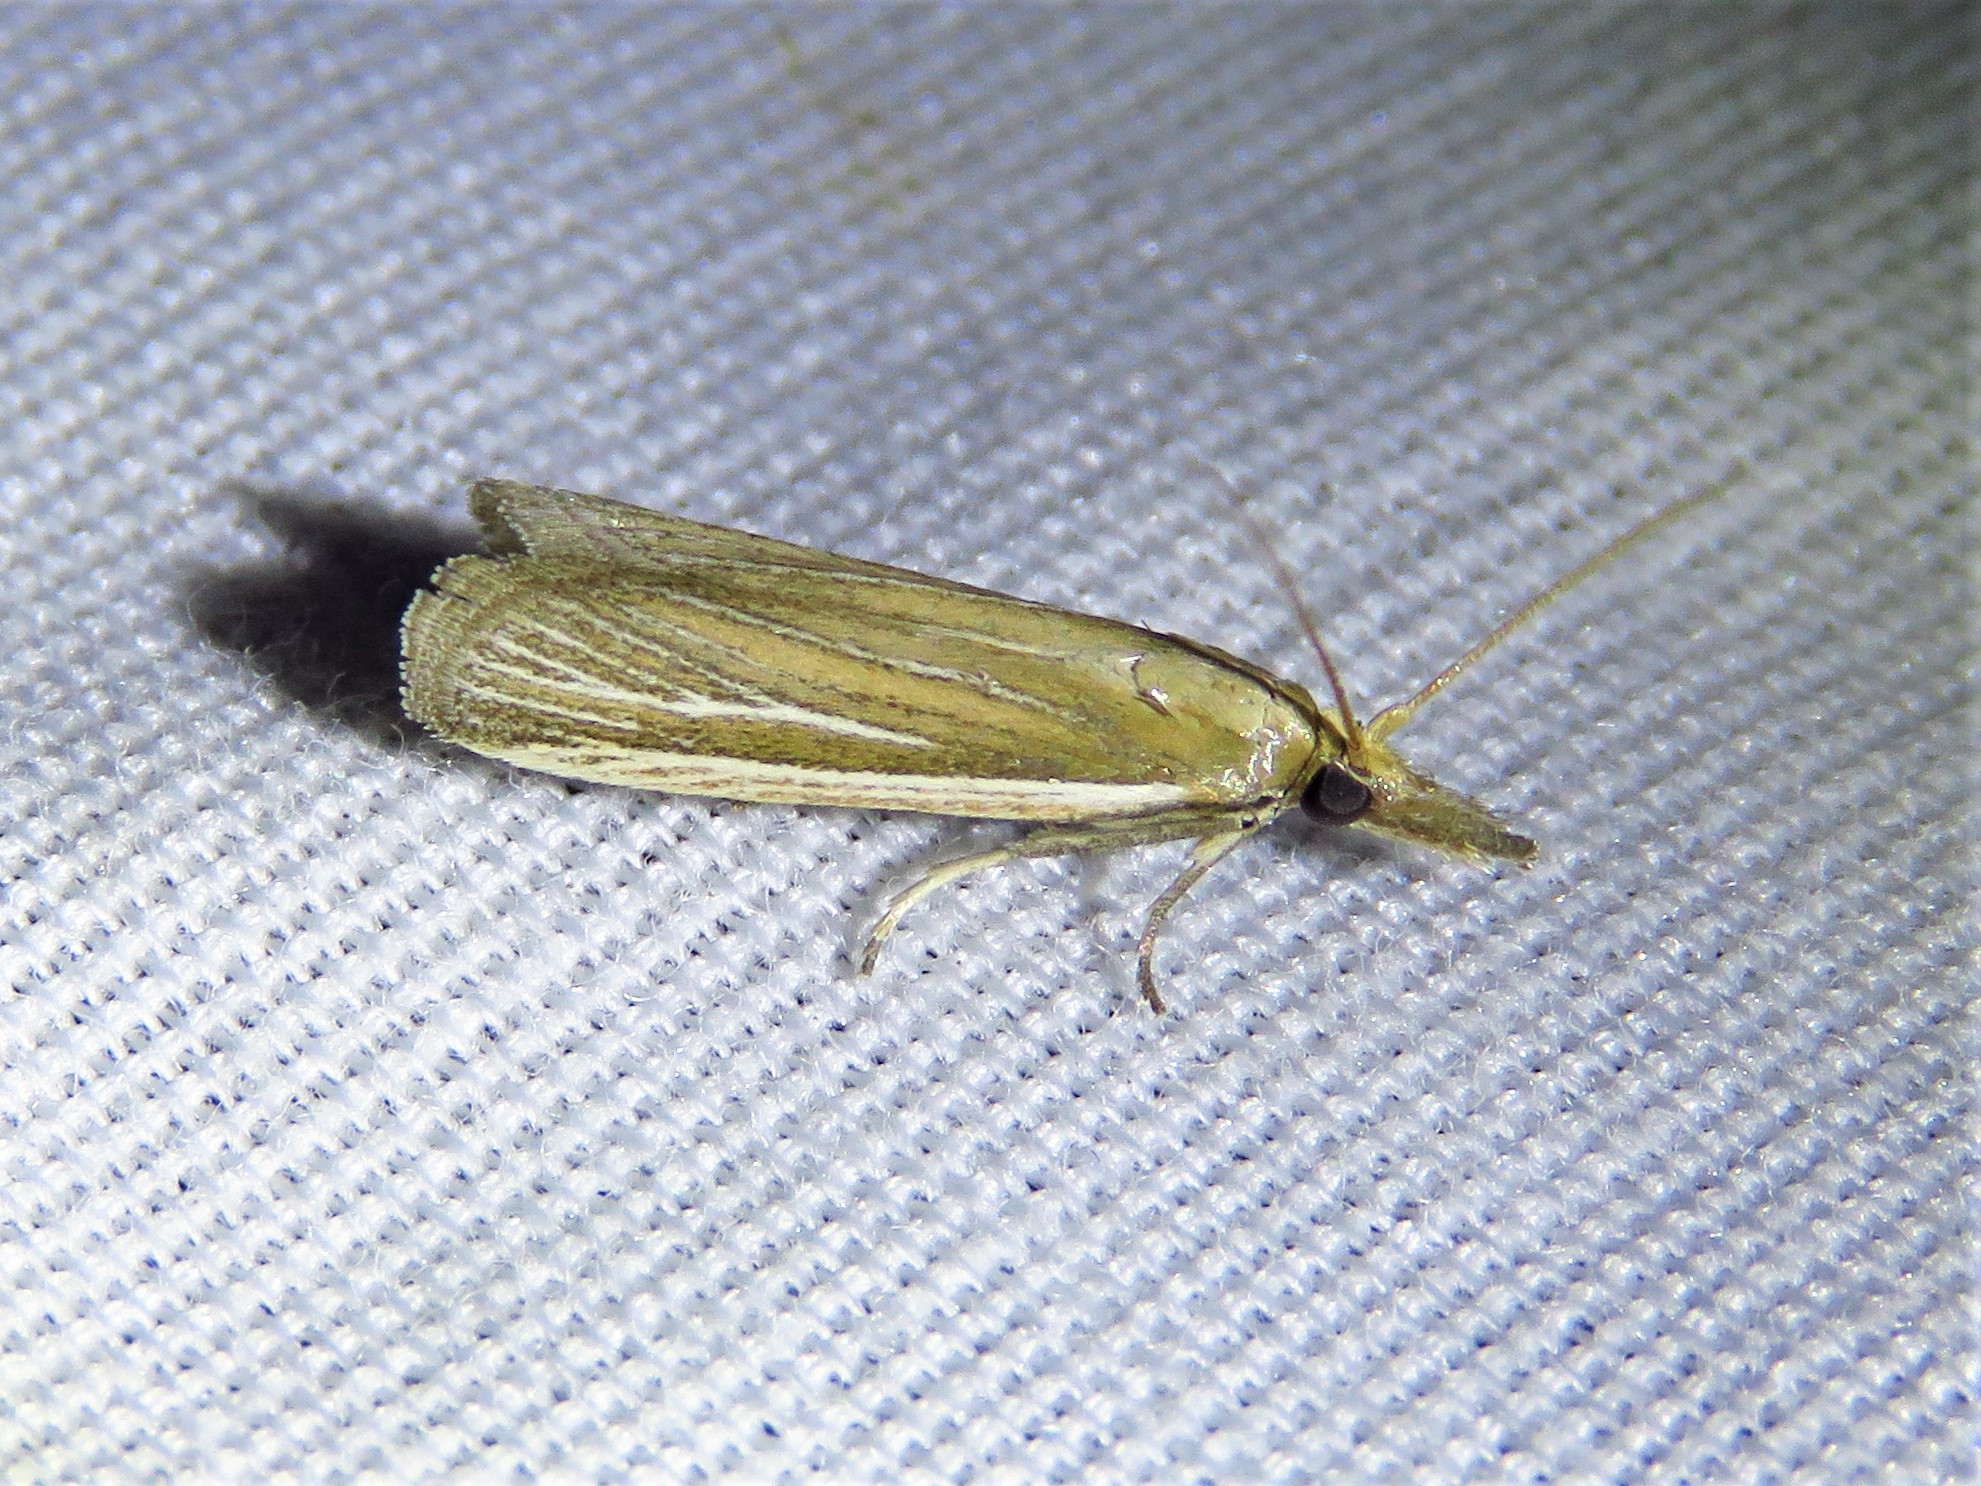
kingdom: Animalia
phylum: Arthropoda
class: Insecta
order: Lepidoptera
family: Pyralidae
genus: Peoria
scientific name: Peoria tetradella
